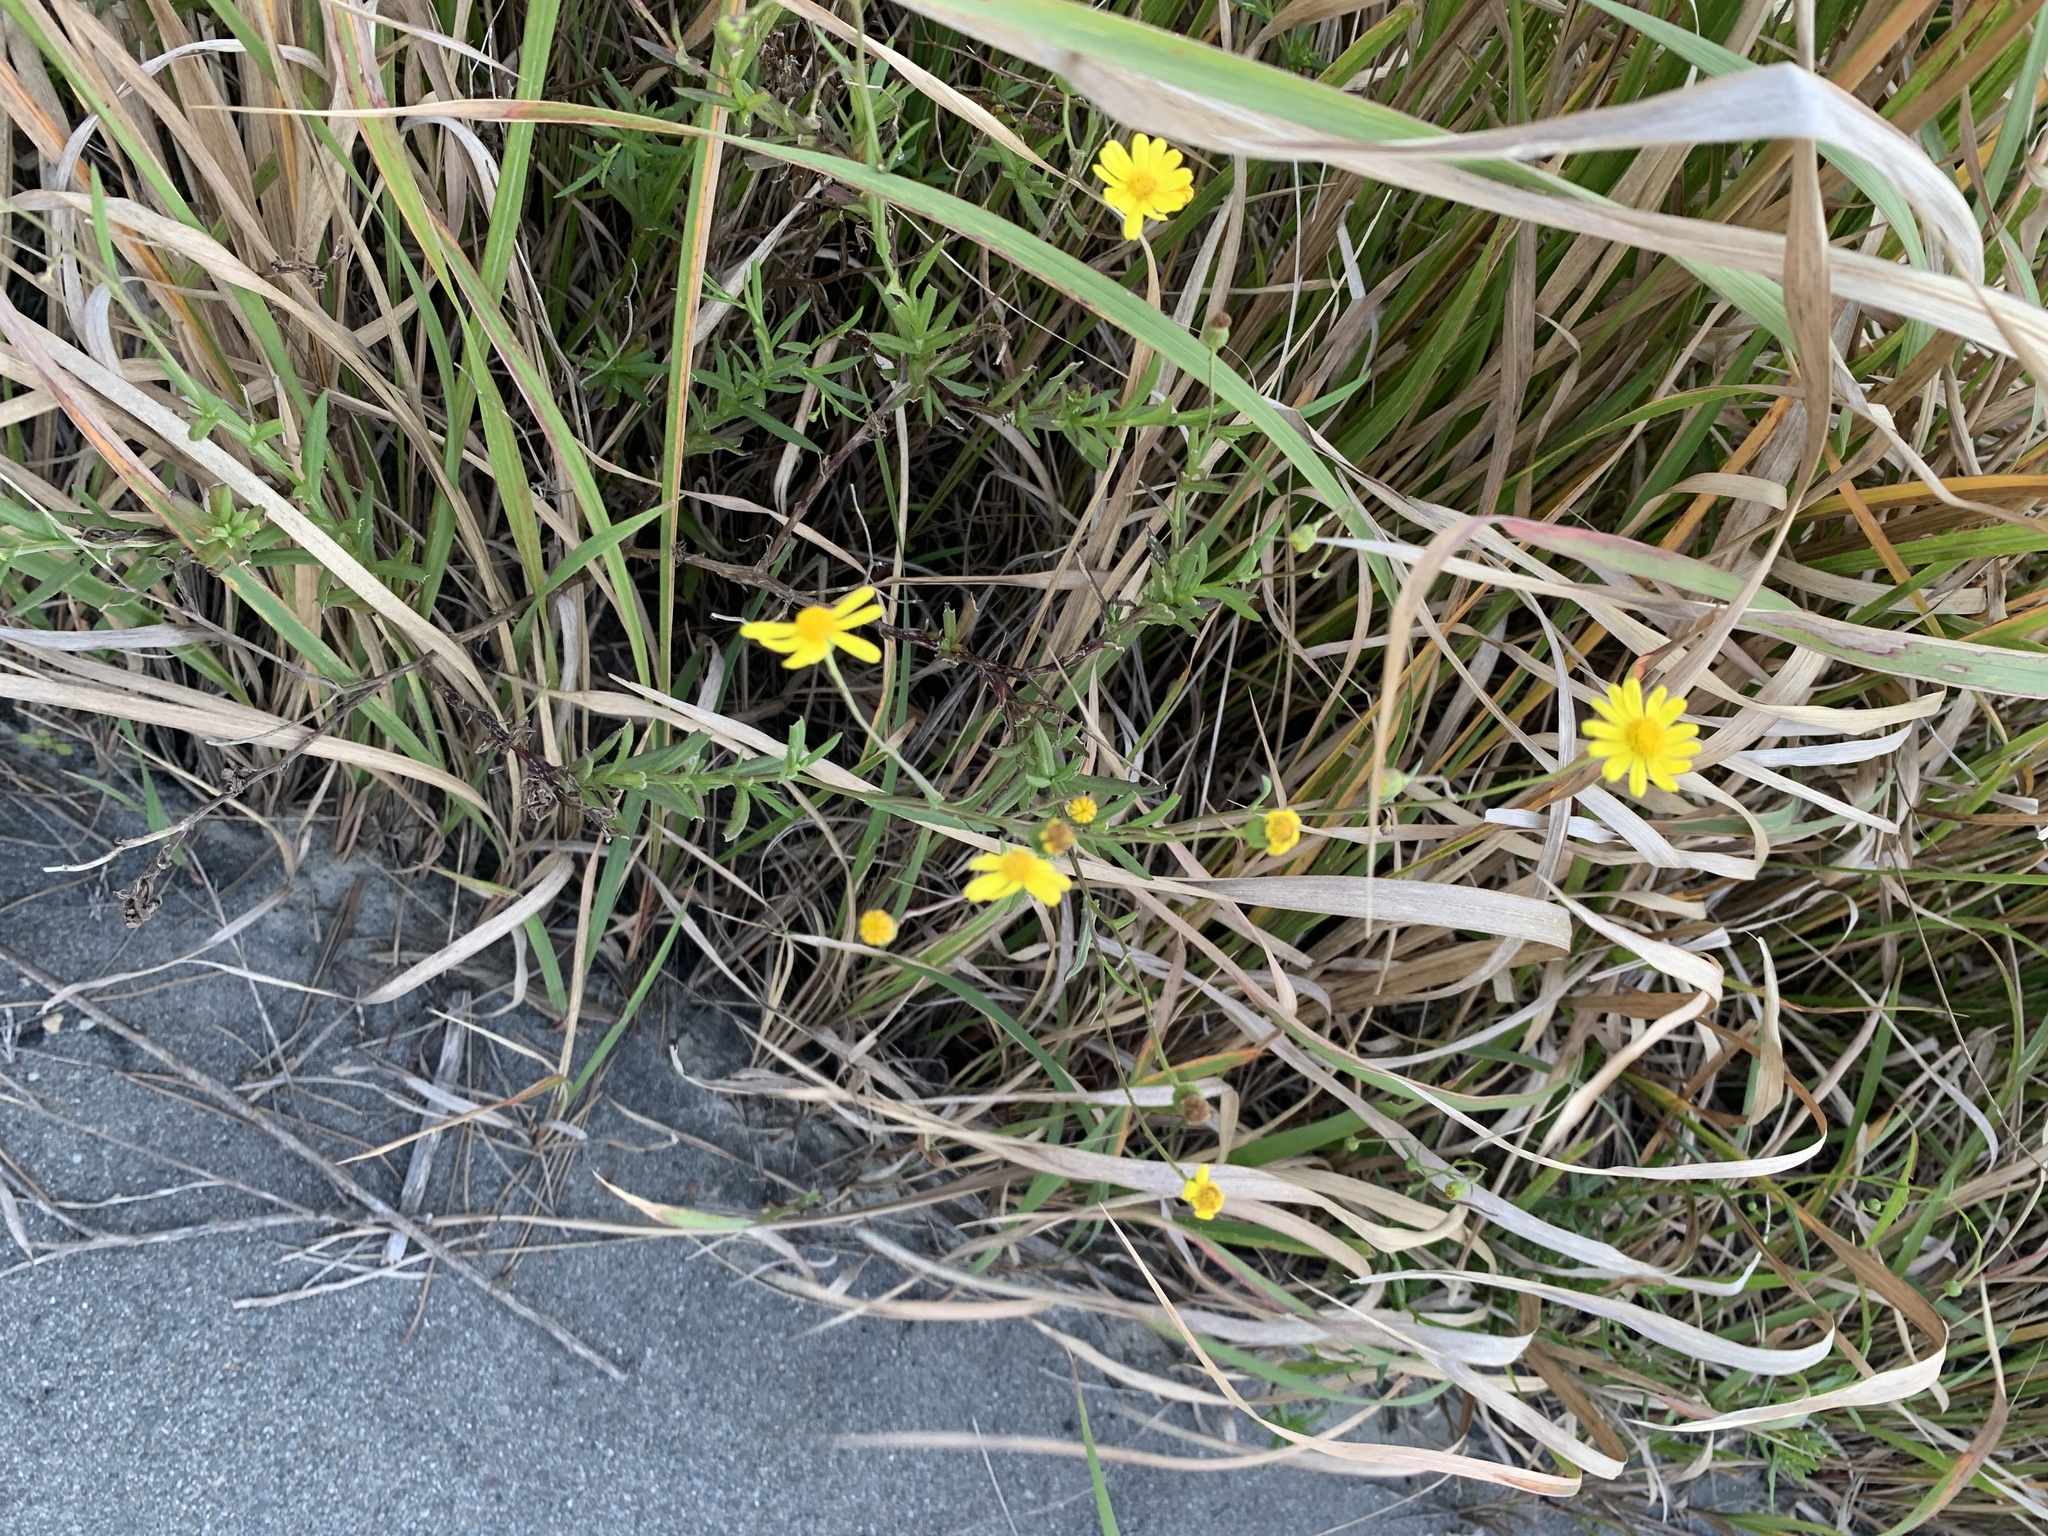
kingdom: Plantae
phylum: Tracheophyta
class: Magnoliopsida
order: Asterales
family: Asteraceae
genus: Senecio
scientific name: Senecio madagascariensis
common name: Madagascar ragwort
